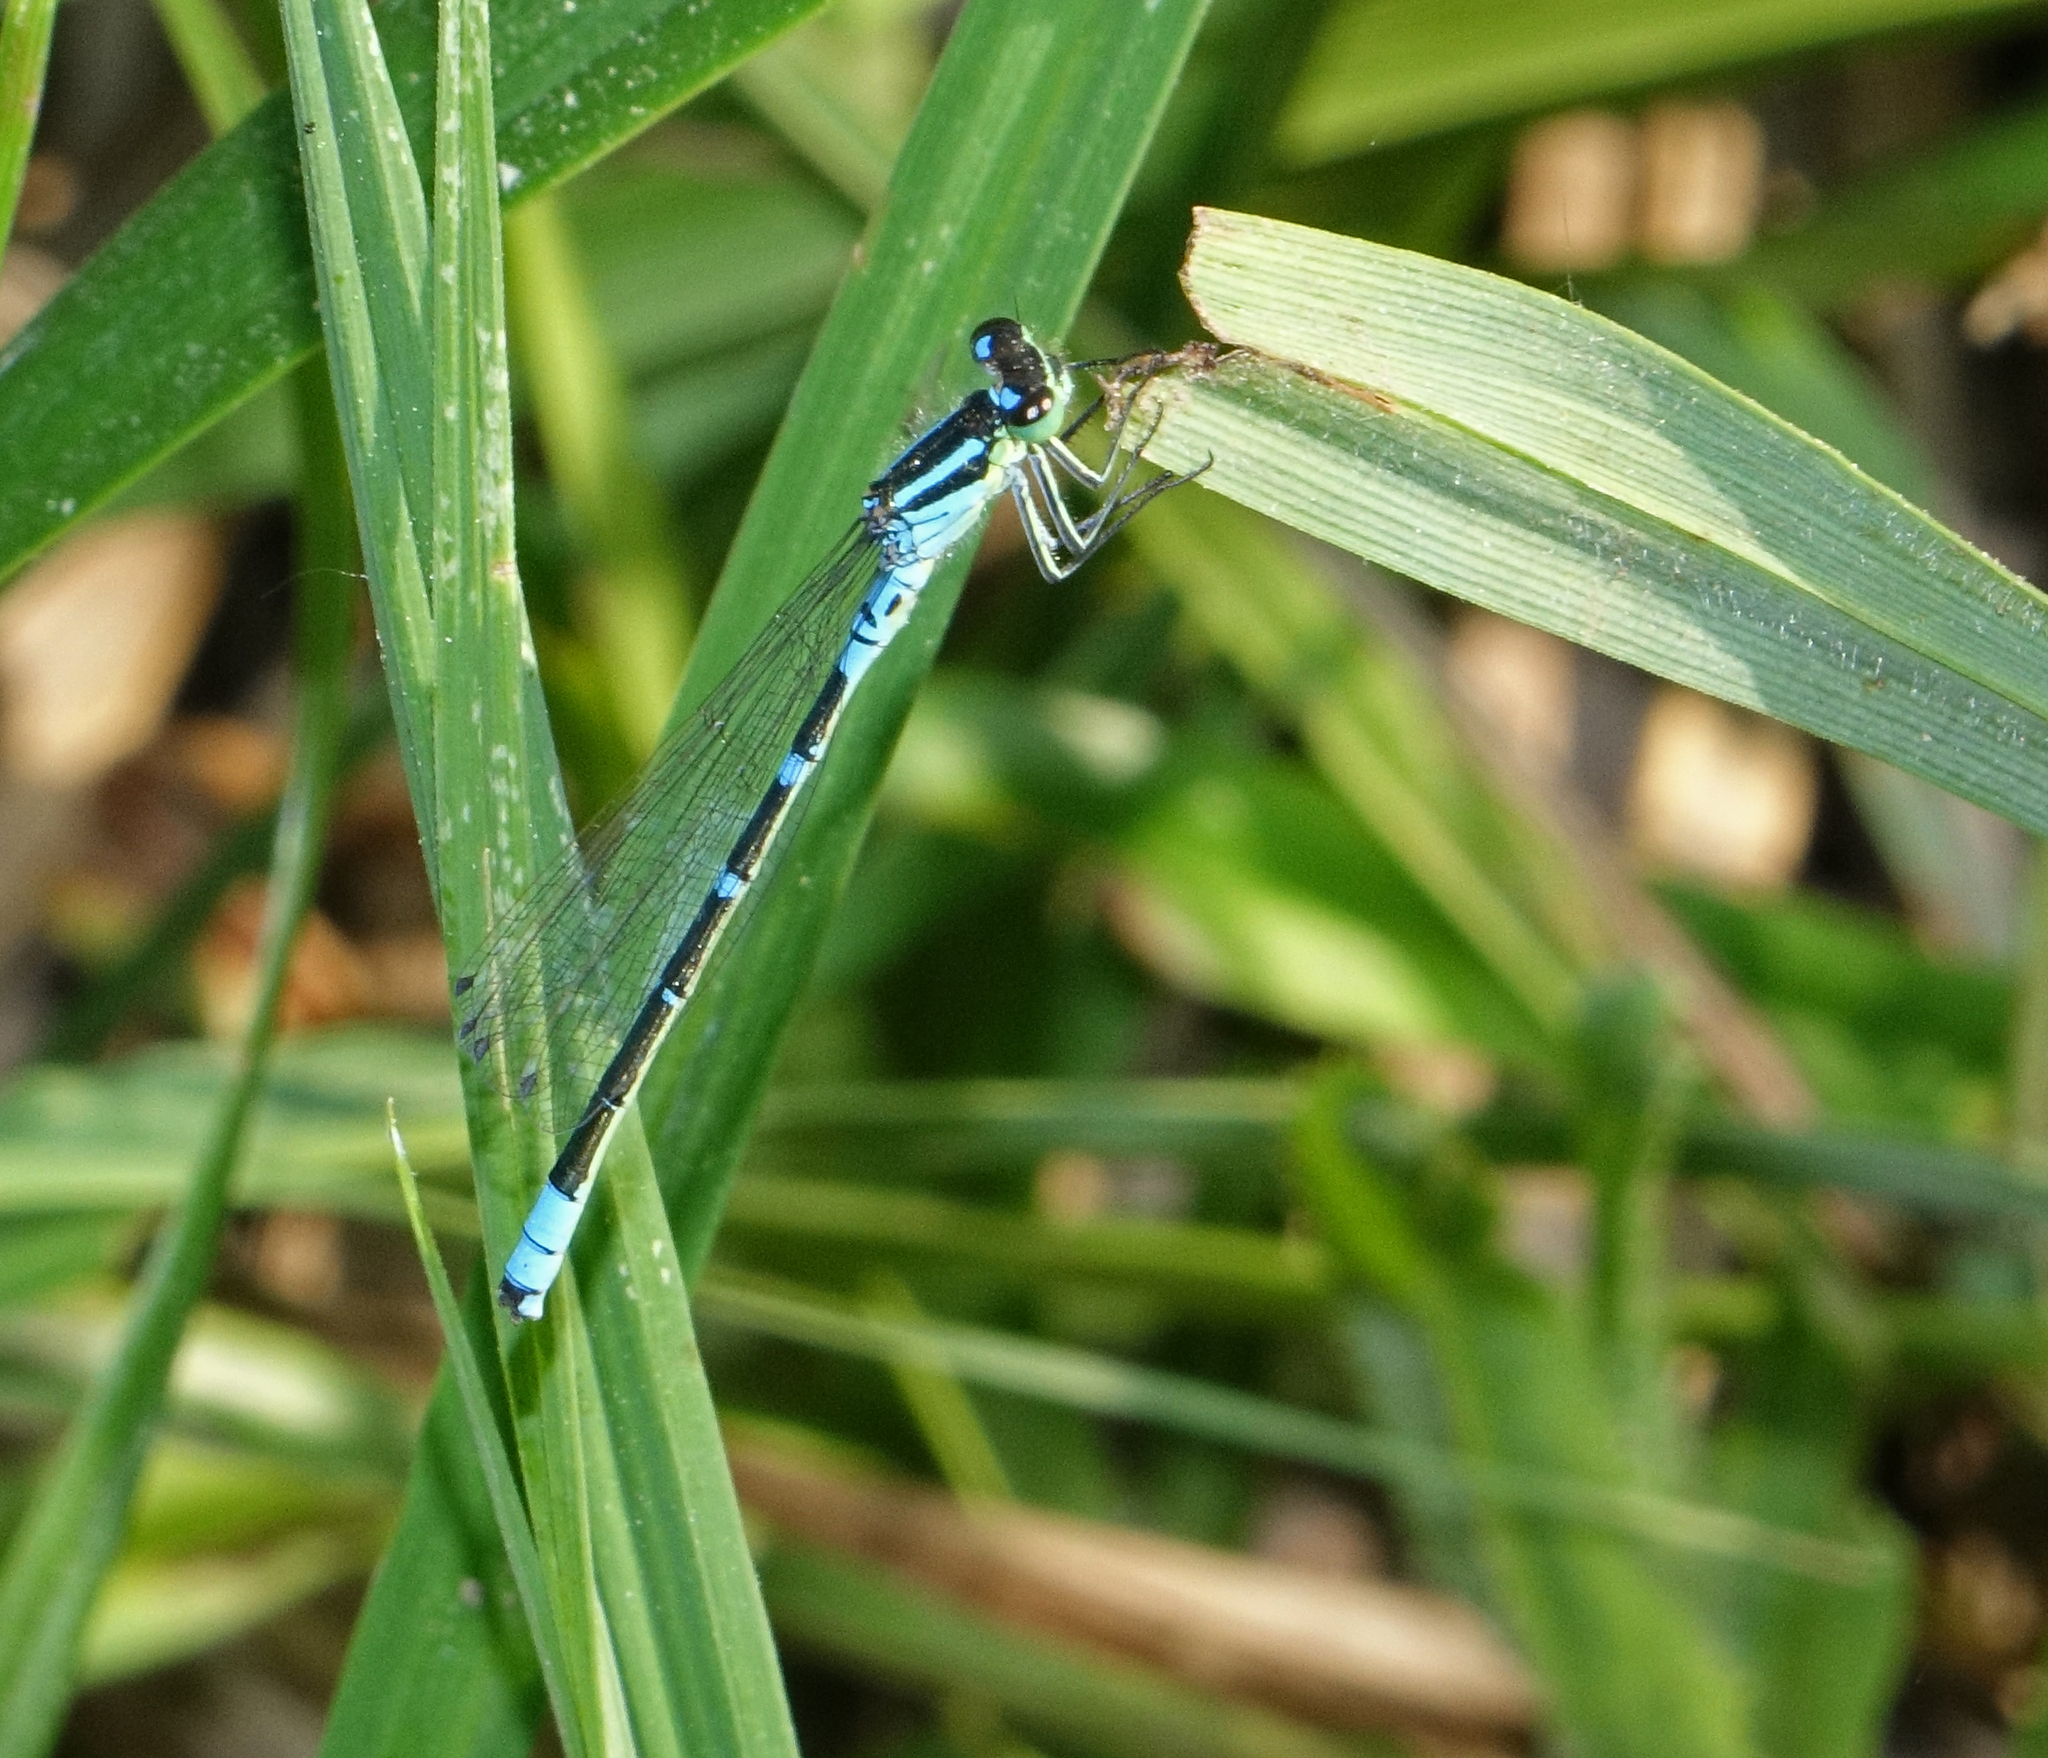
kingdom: Animalia
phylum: Arthropoda
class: Insecta
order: Odonata
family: Coenagrionidae
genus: Coenagrion
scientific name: Coenagrion lunulatum
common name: Irish damselfly
